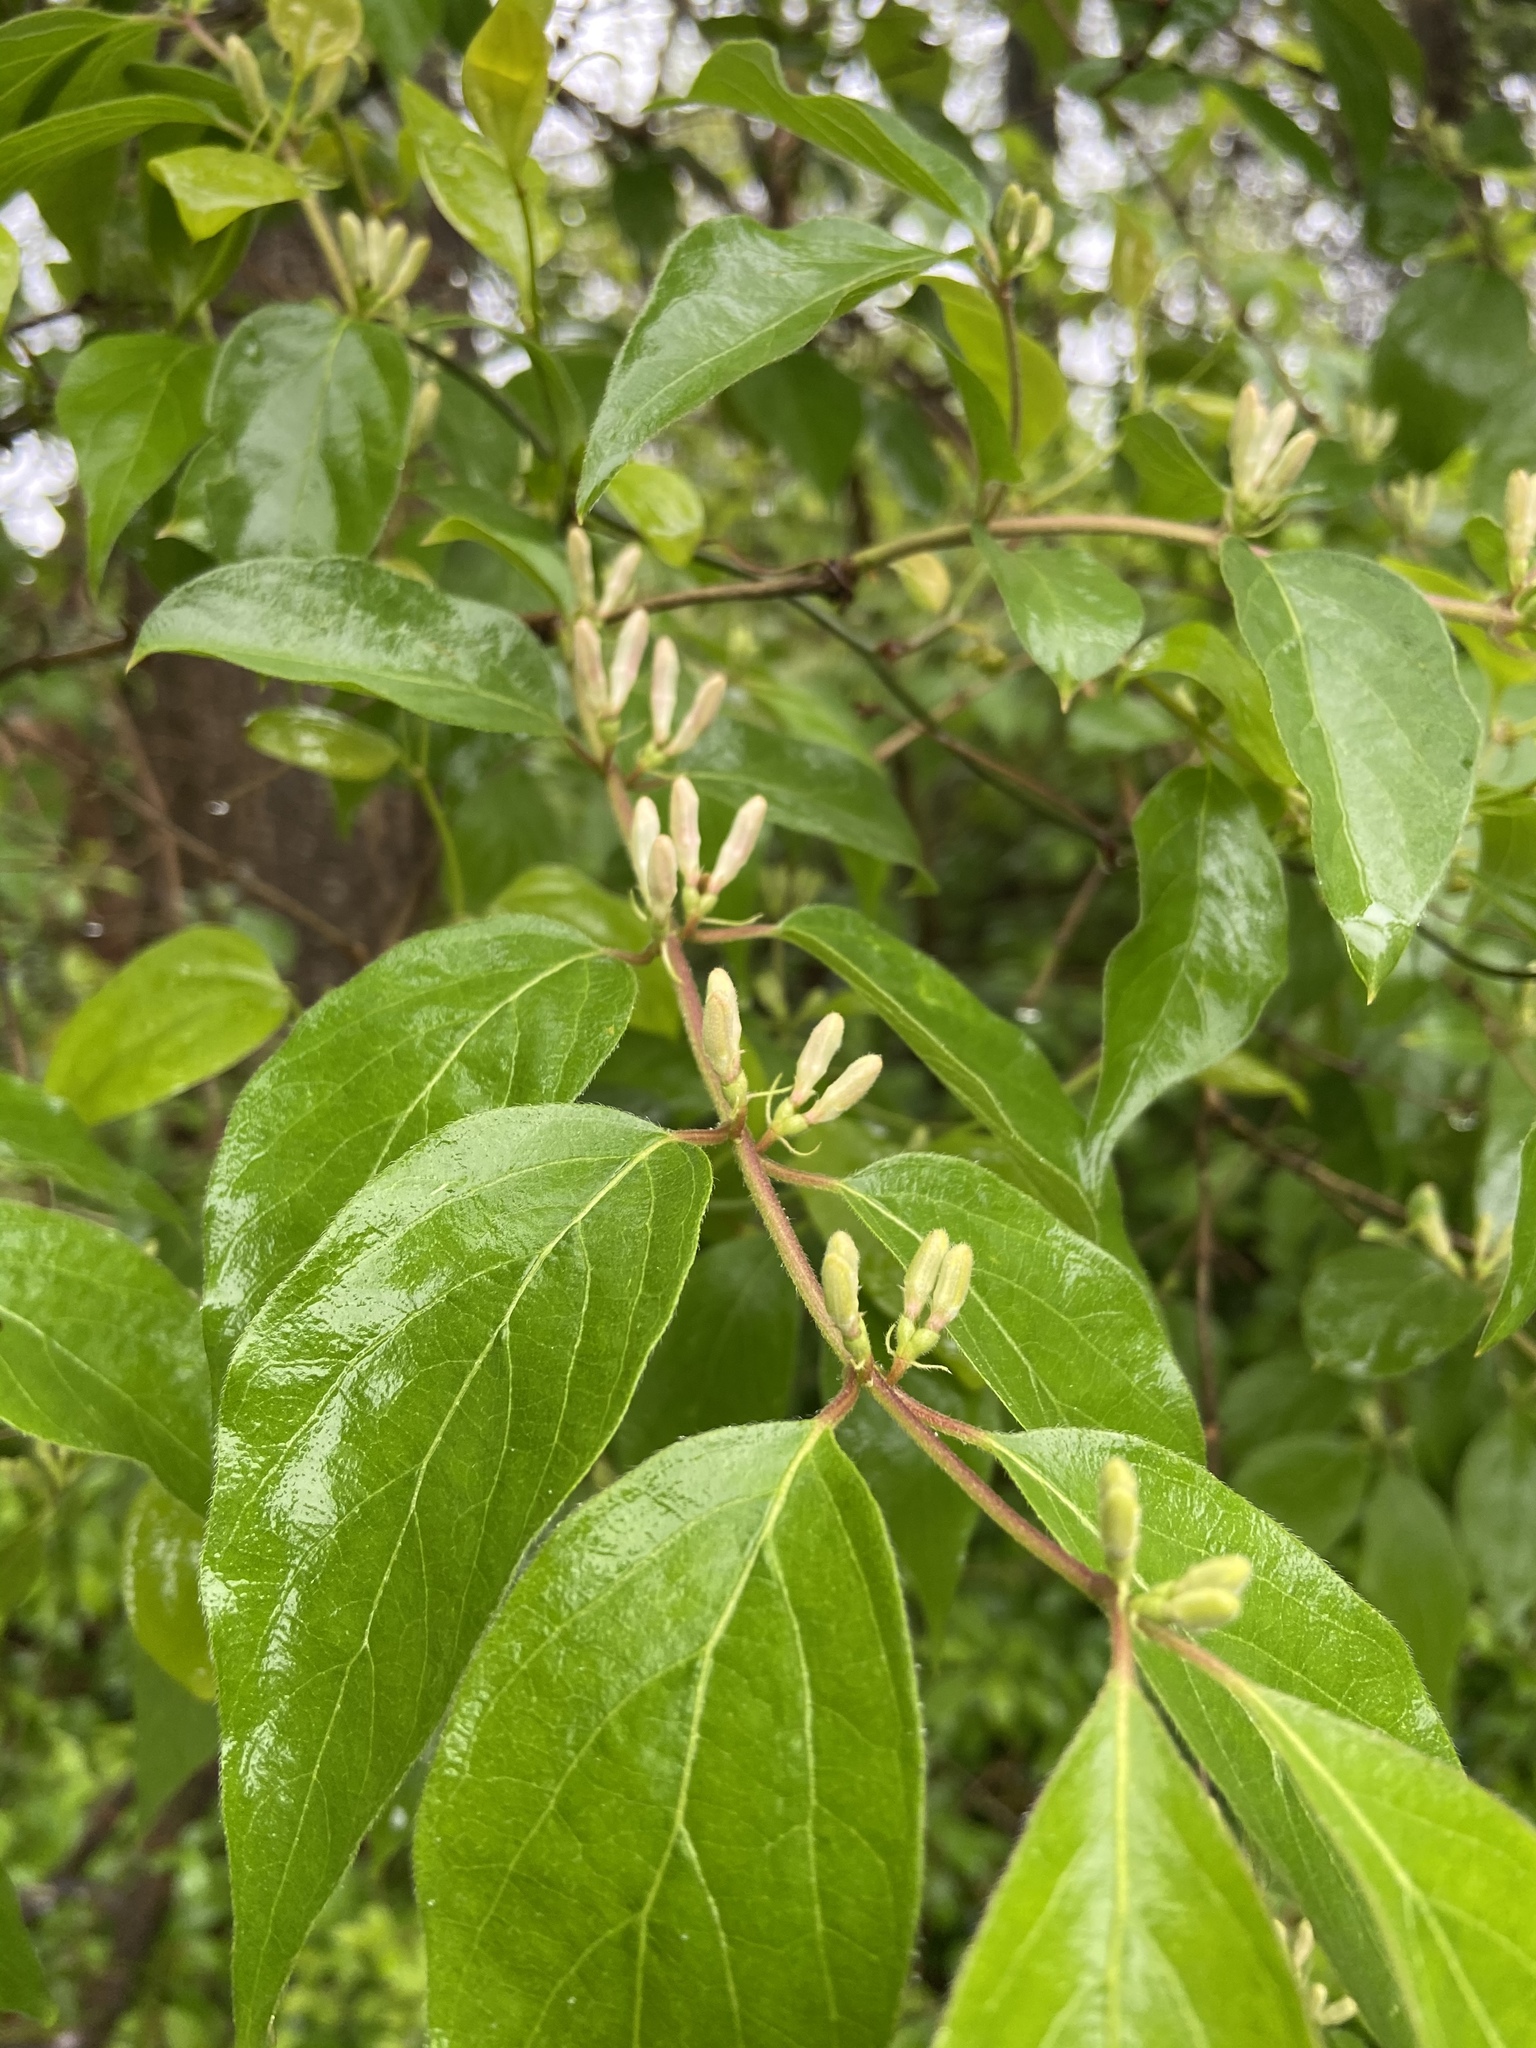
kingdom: Plantae
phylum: Tracheophyta
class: Magnoliopsida
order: Dipsacales
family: Caprifoliaceae
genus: Lonicera
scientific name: Lonicera maackii
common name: Amur honeysuckle
